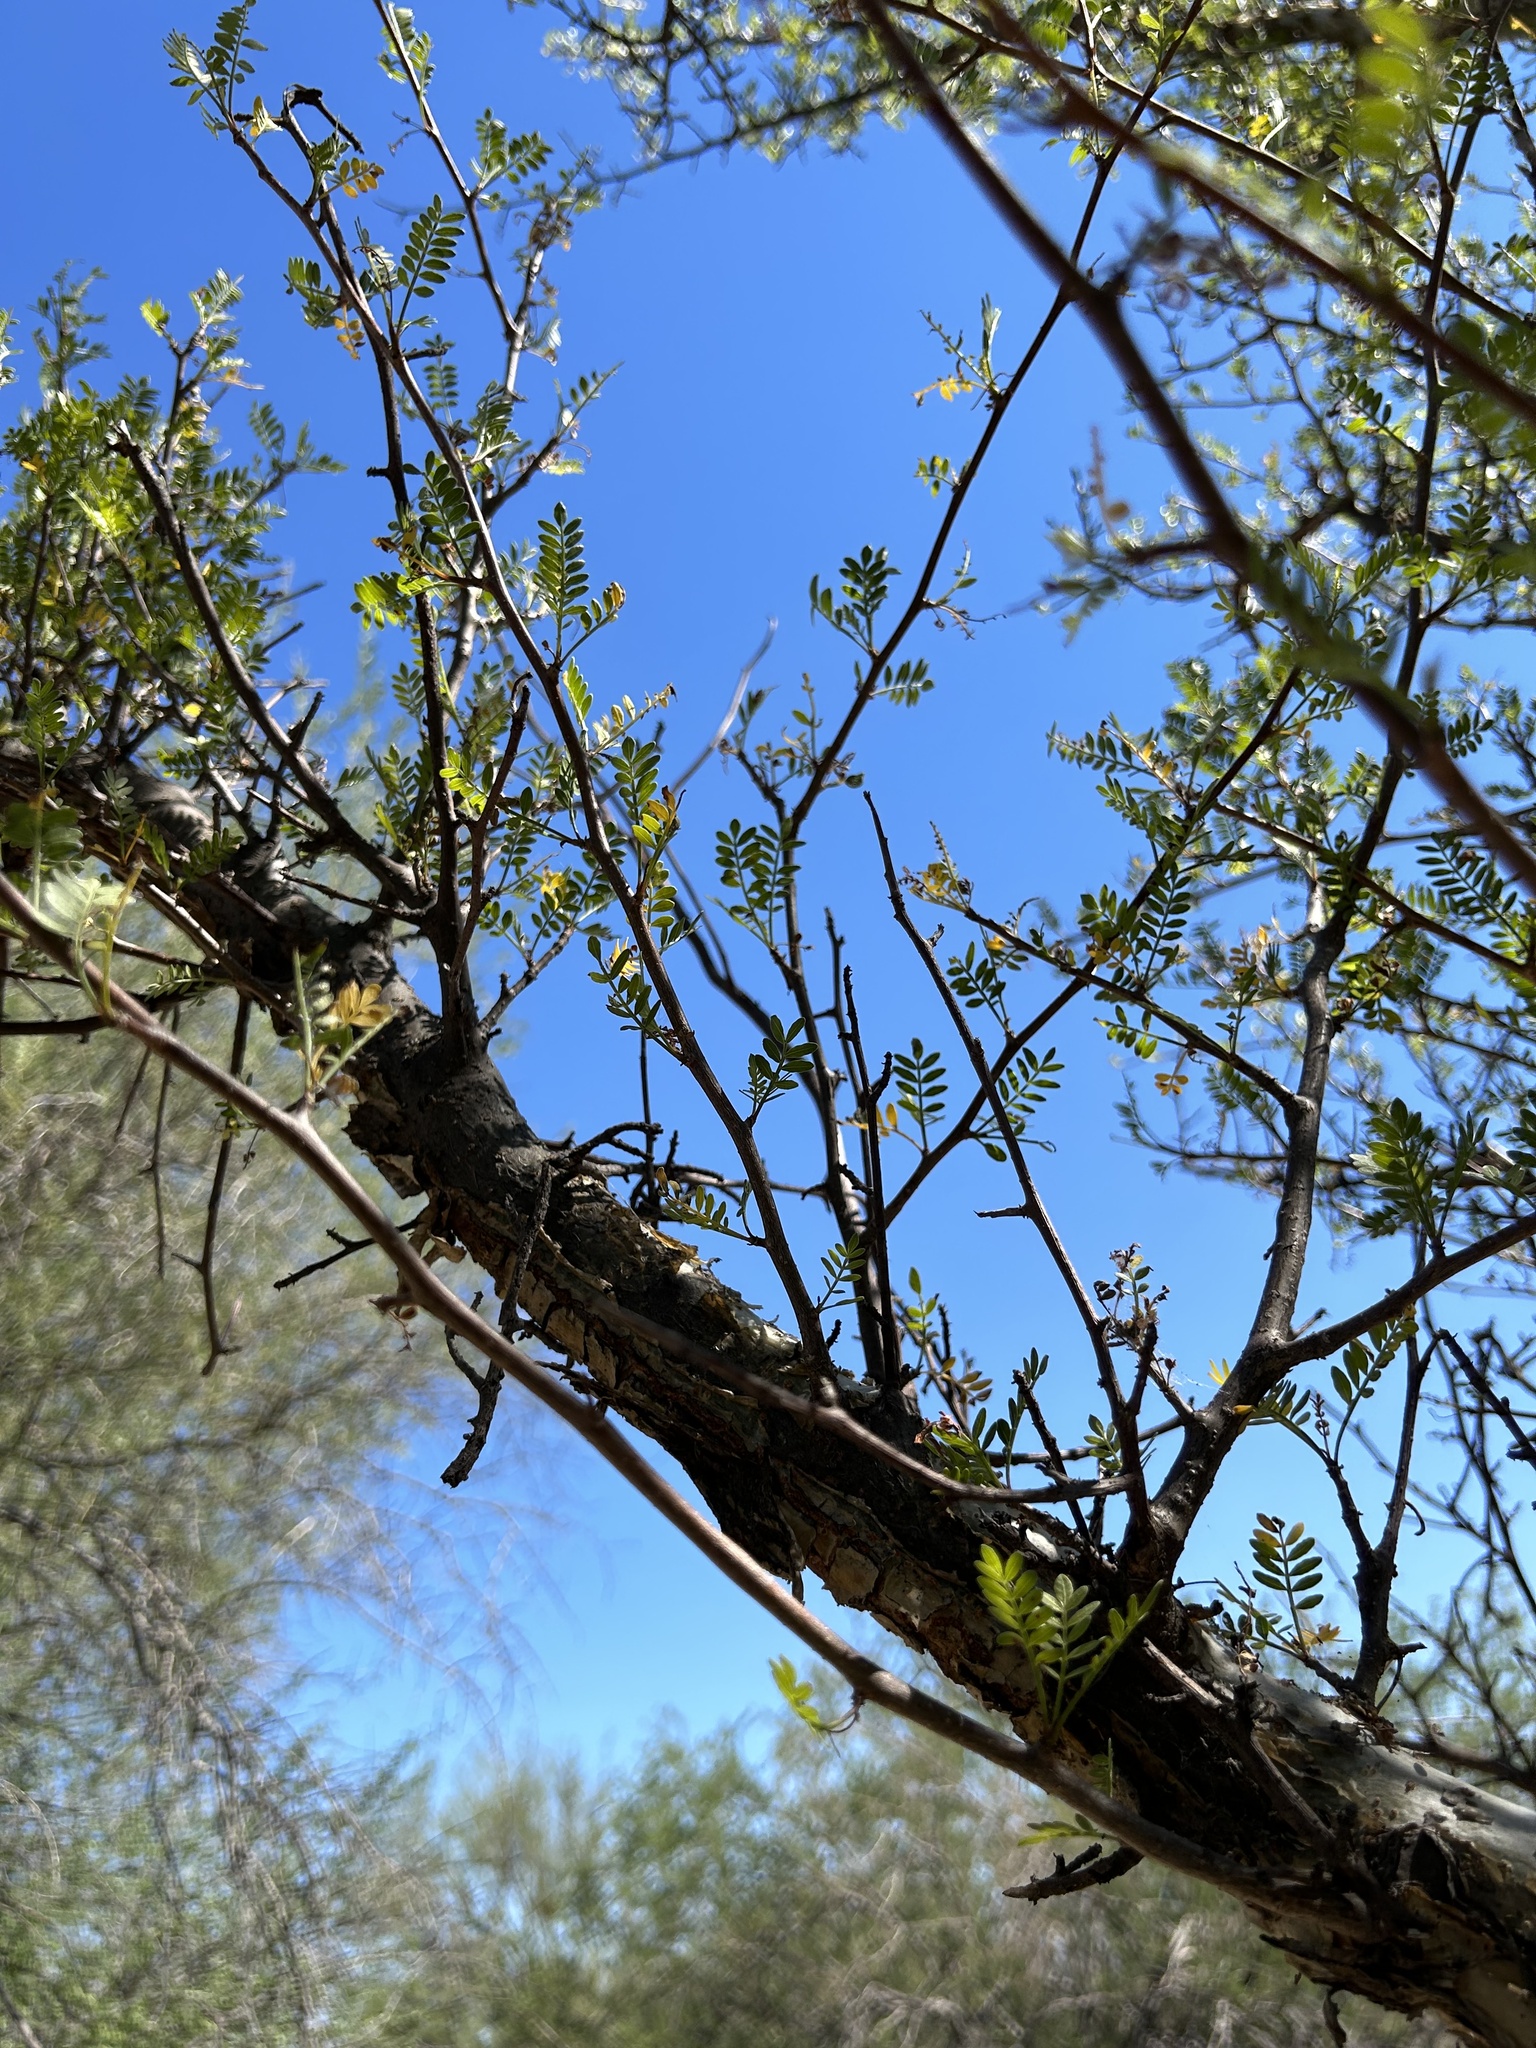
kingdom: Plantae
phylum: Tracheophyta
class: Magnoliopsida
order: Sapindales
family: Burseraceae
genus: Bursera
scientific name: Bursera microphylla
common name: Elephant tree
